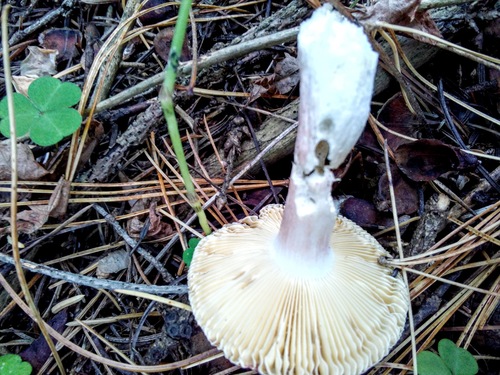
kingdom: Fungi
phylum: Basidiomycota
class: Agaricomycetes
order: Russulales
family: Russulaceae
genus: Russula
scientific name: Russula
